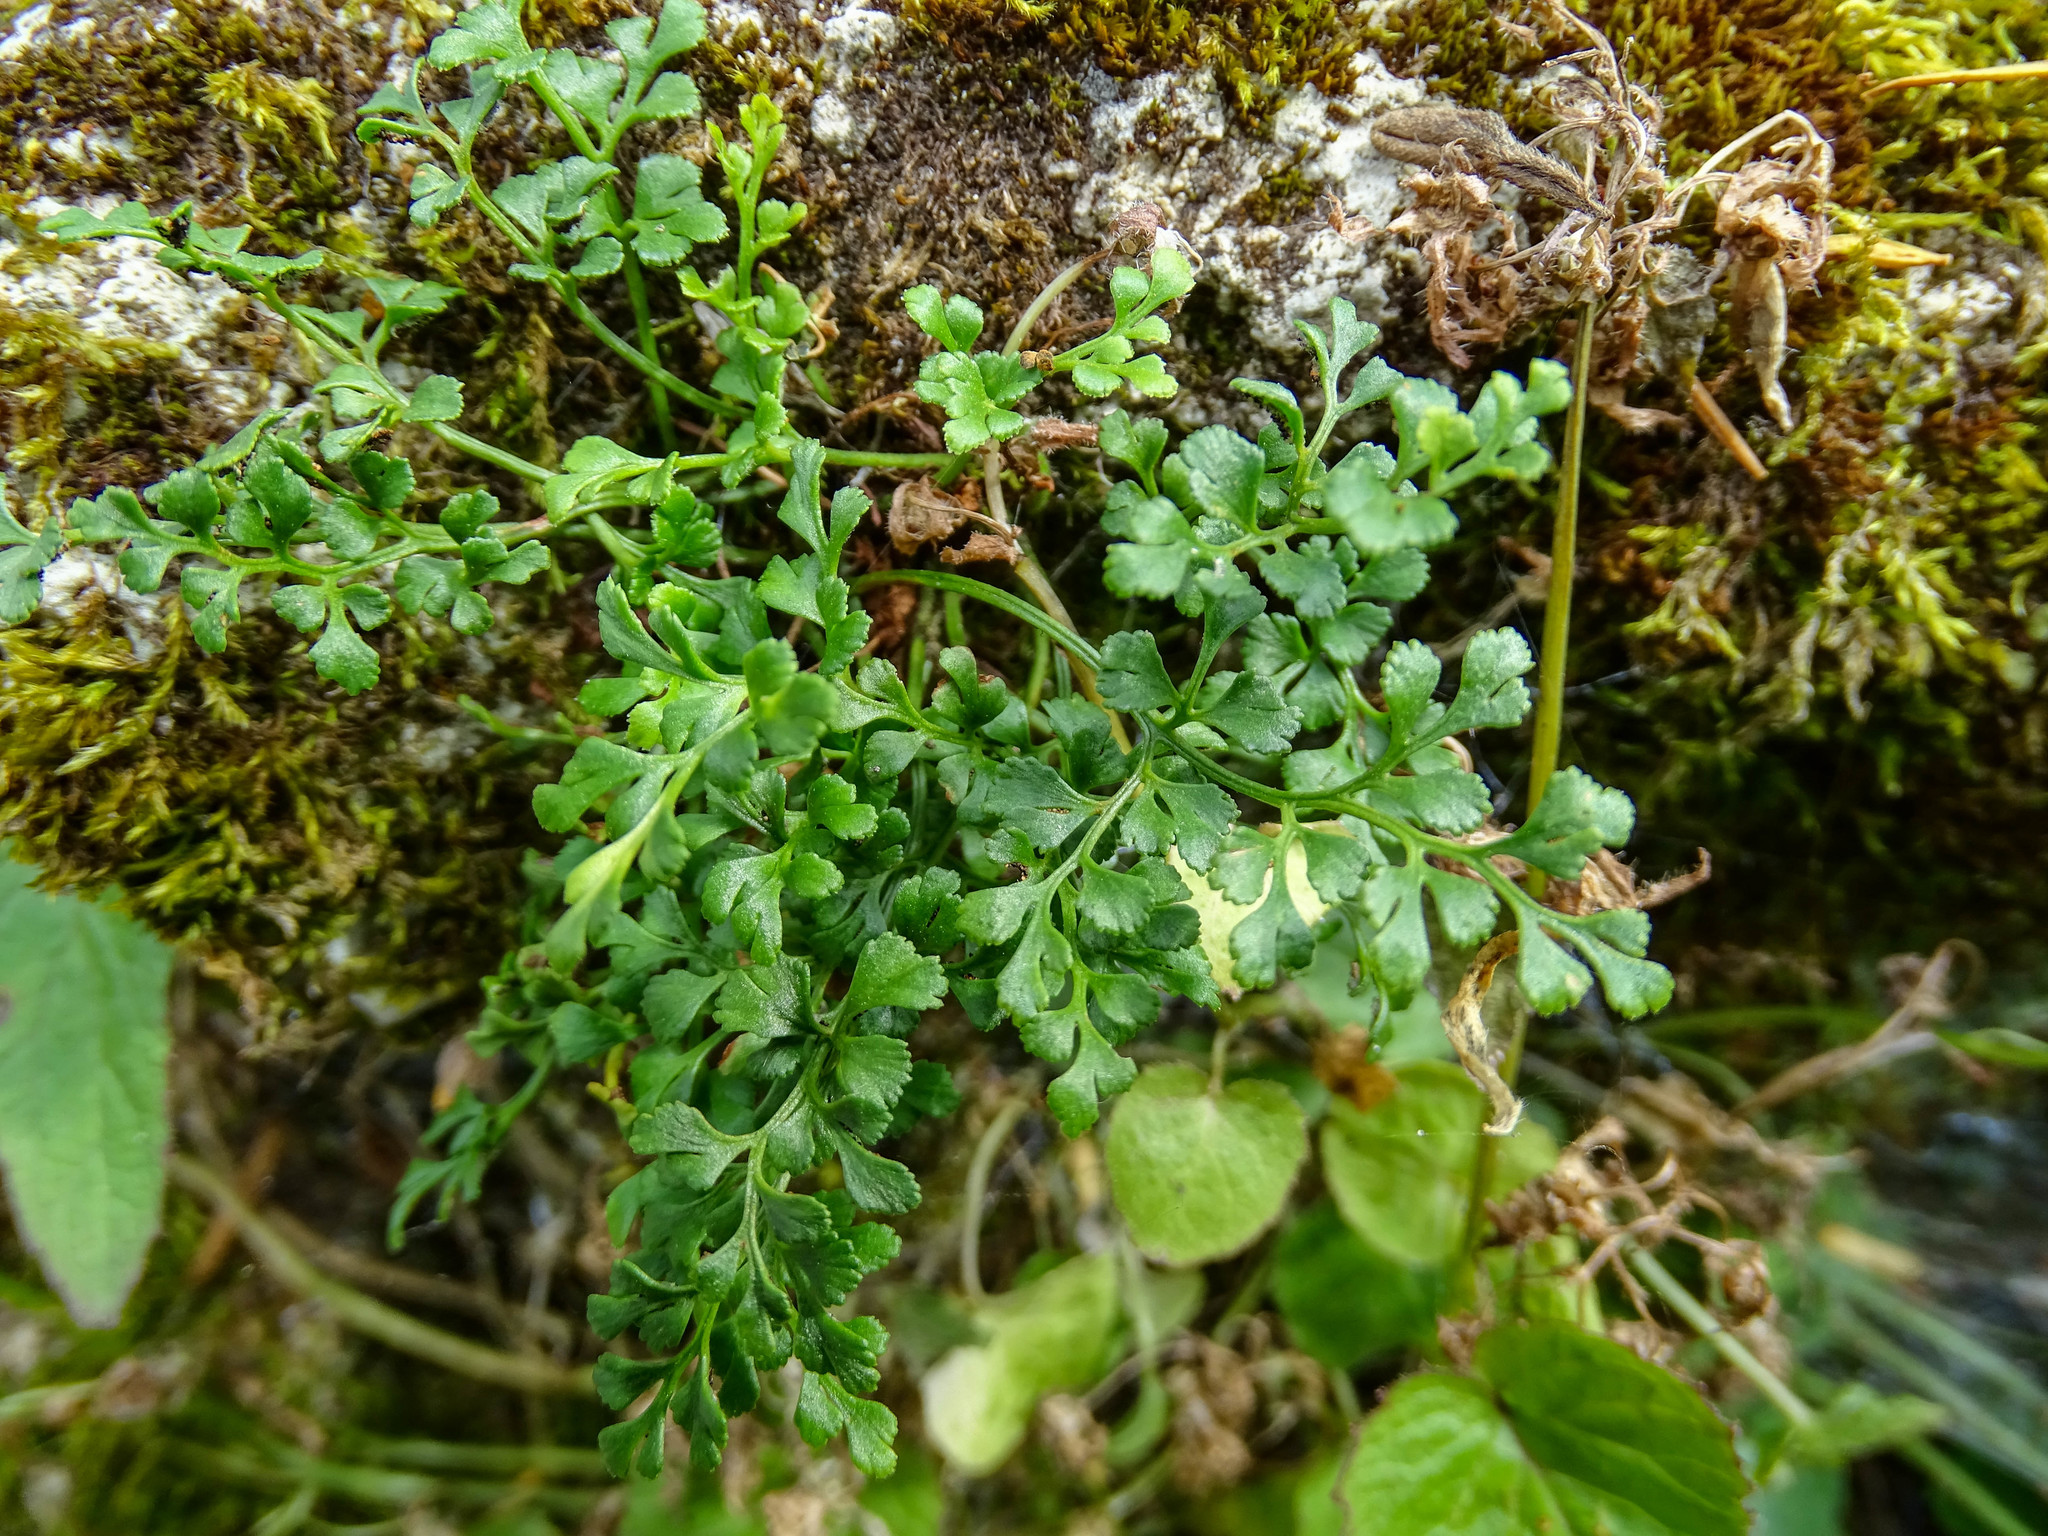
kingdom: Plantae
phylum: Tracheophyta
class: Polypodiopsida
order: Polypodiales
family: Aspleniaceae
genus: Asplenium
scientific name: Asplenium ruta-muraria
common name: Wall-rue
